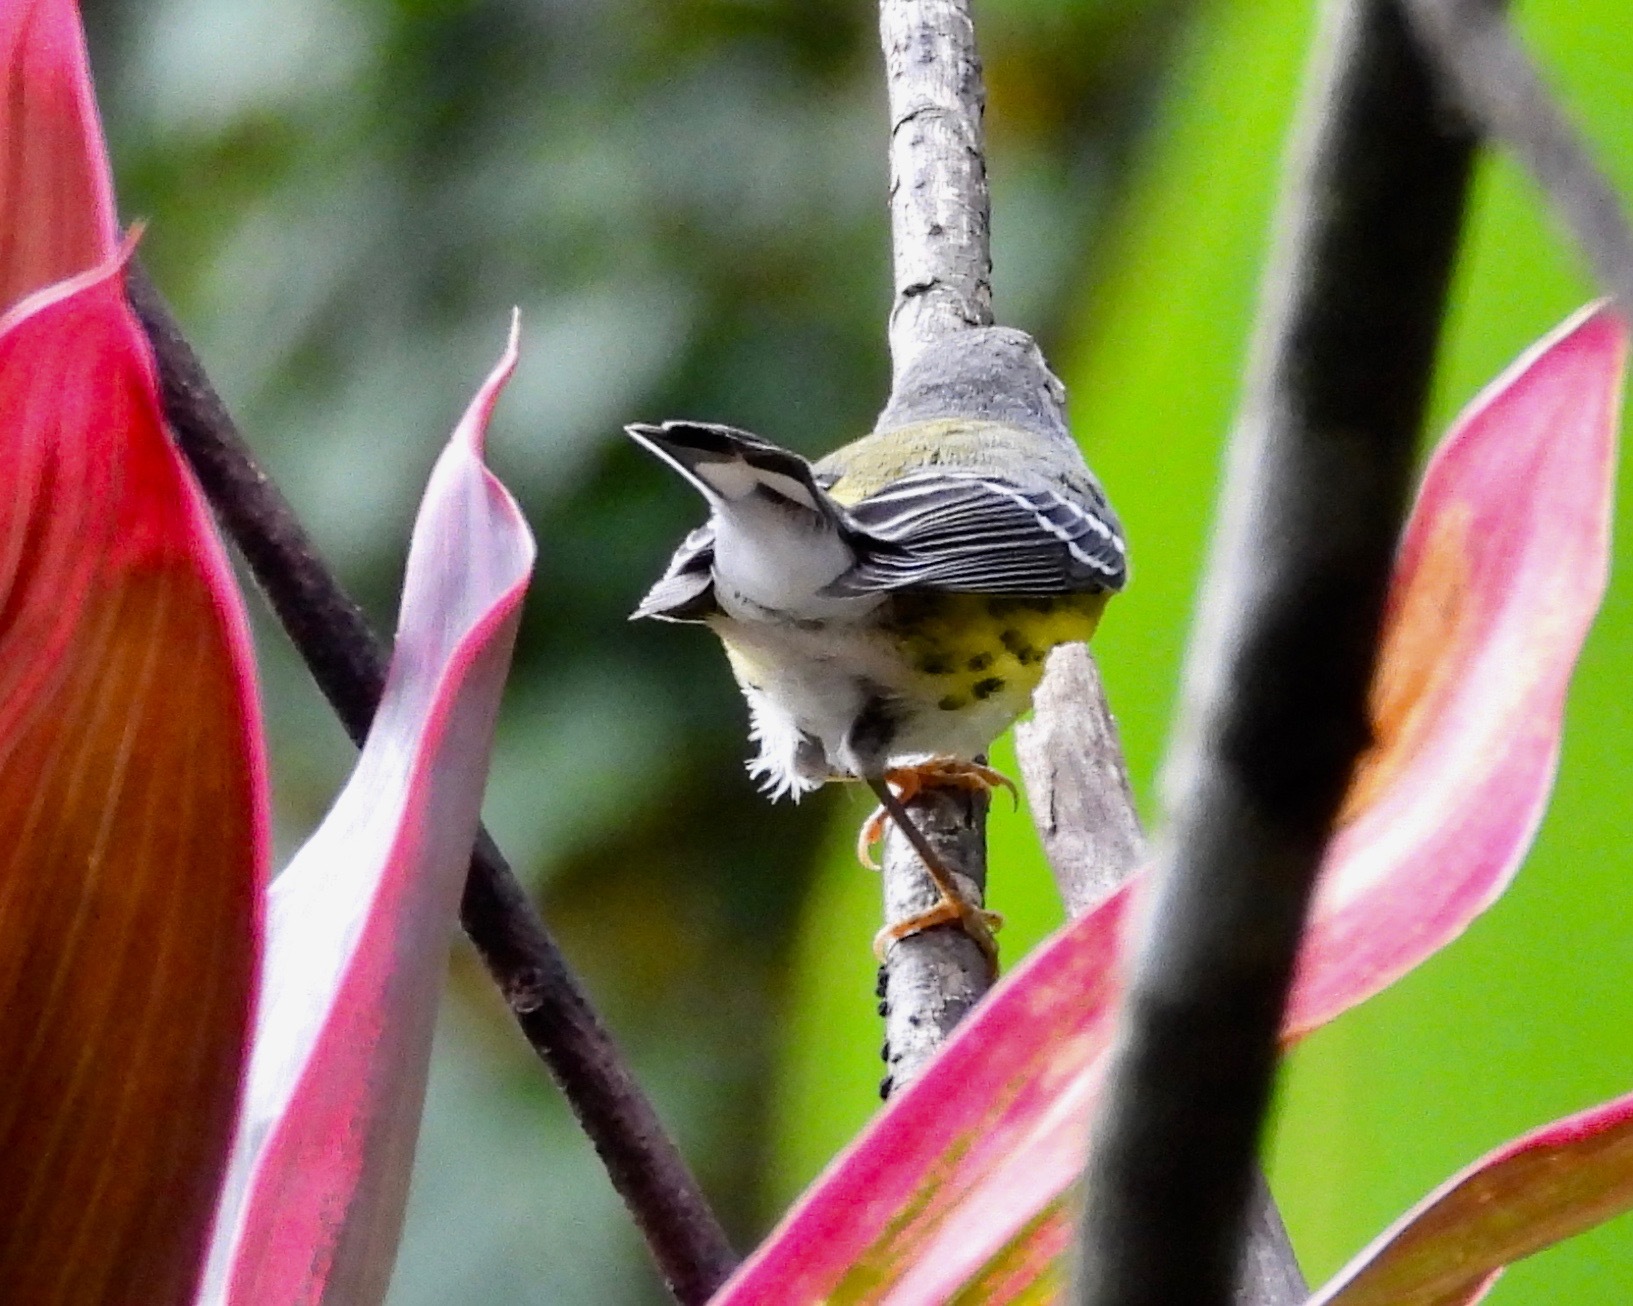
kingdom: Animalia
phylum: Chordata
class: Aves
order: Passeriformes
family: Parulidae
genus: Setophaga
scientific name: Setophaga magnolia
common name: Magnolia warbler
